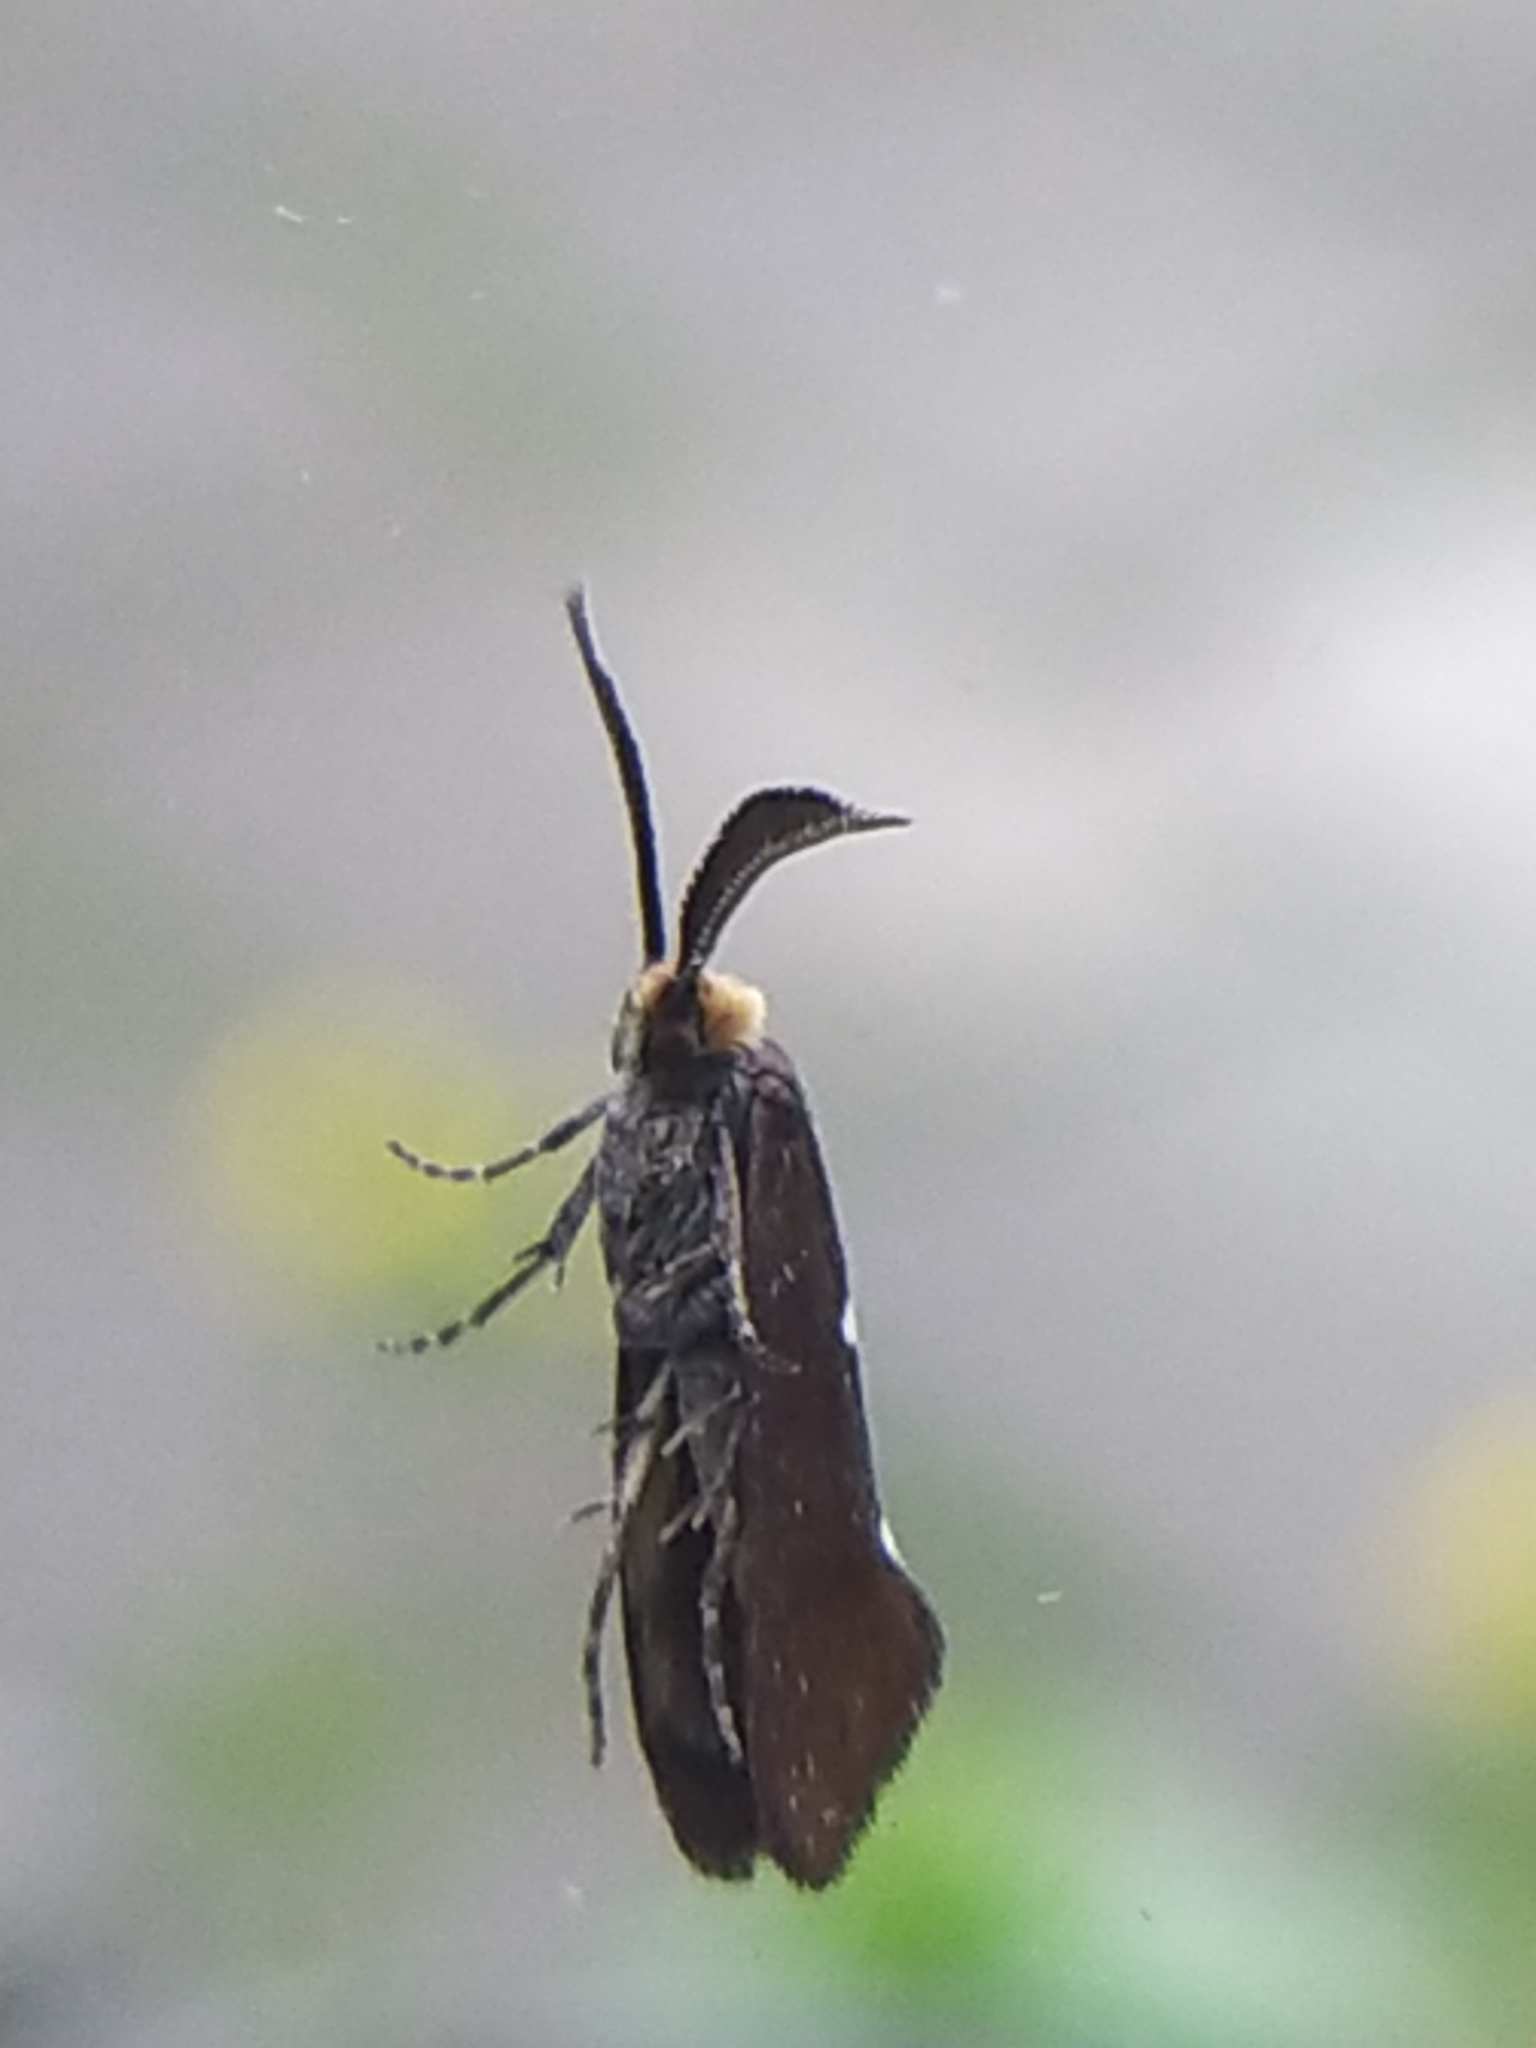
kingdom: Animalia
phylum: Arthropoda
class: Insecta
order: Lepidoptera
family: Incurvariidae
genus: Incurvaria
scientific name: Incurvaria masculella
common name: Feathered leaf-cutter
